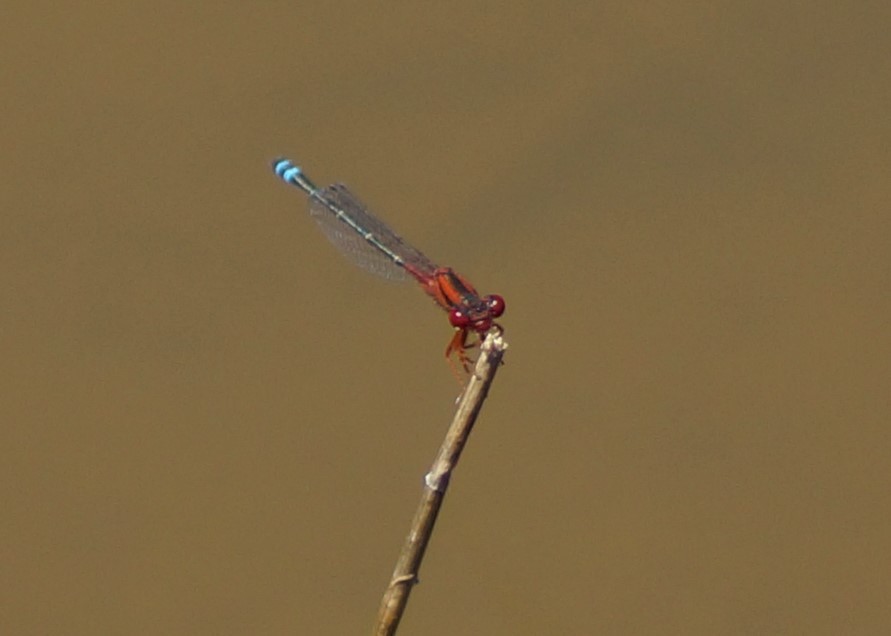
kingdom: Animalia
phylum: Arthropoda
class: Insecta
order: Odonata
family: Coenagrionidae
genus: Xanthagrion
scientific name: Xanthagrion erythroneurum
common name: Red and blue damsel
